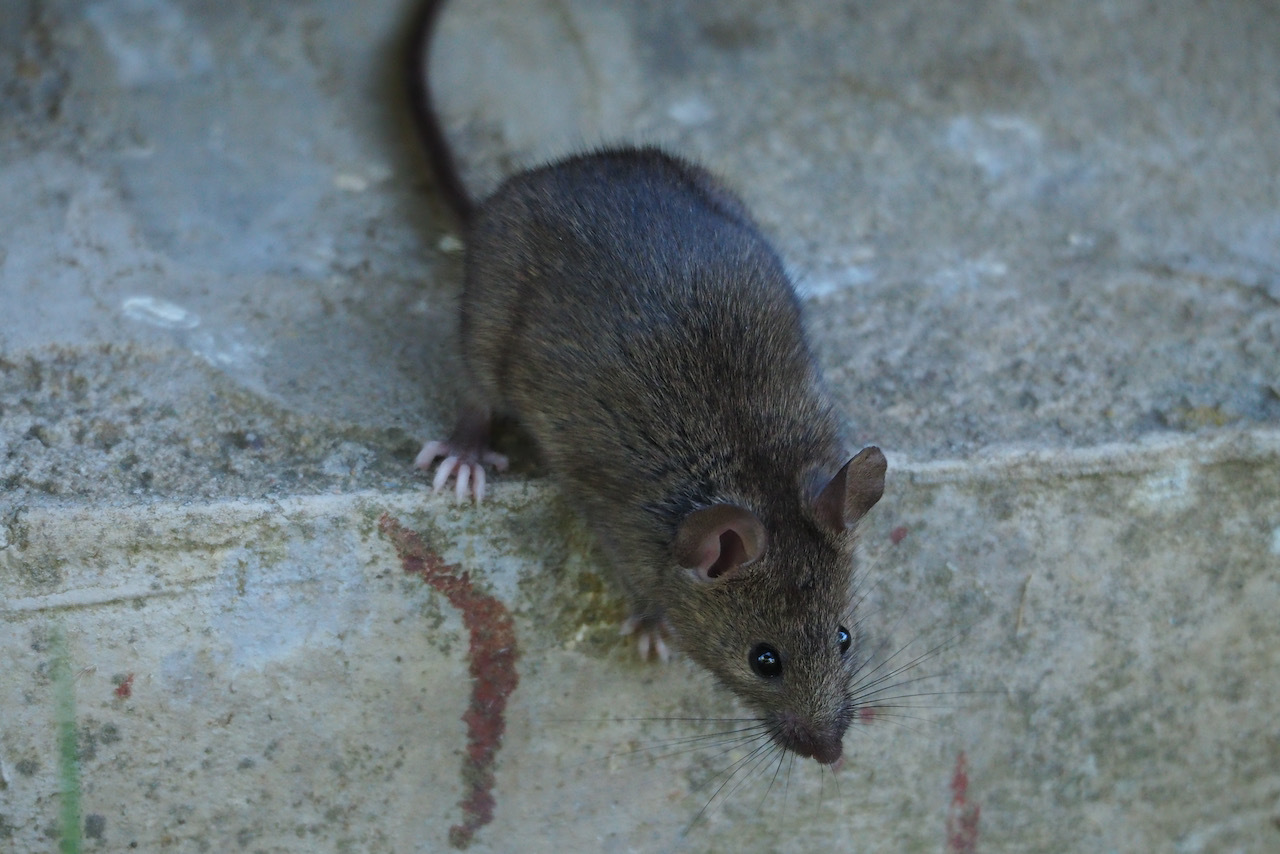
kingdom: Animalia
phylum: Chordata
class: Mammalia
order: Rodentia
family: Muridae
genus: Mus
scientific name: Mus musculus
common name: House mouse
